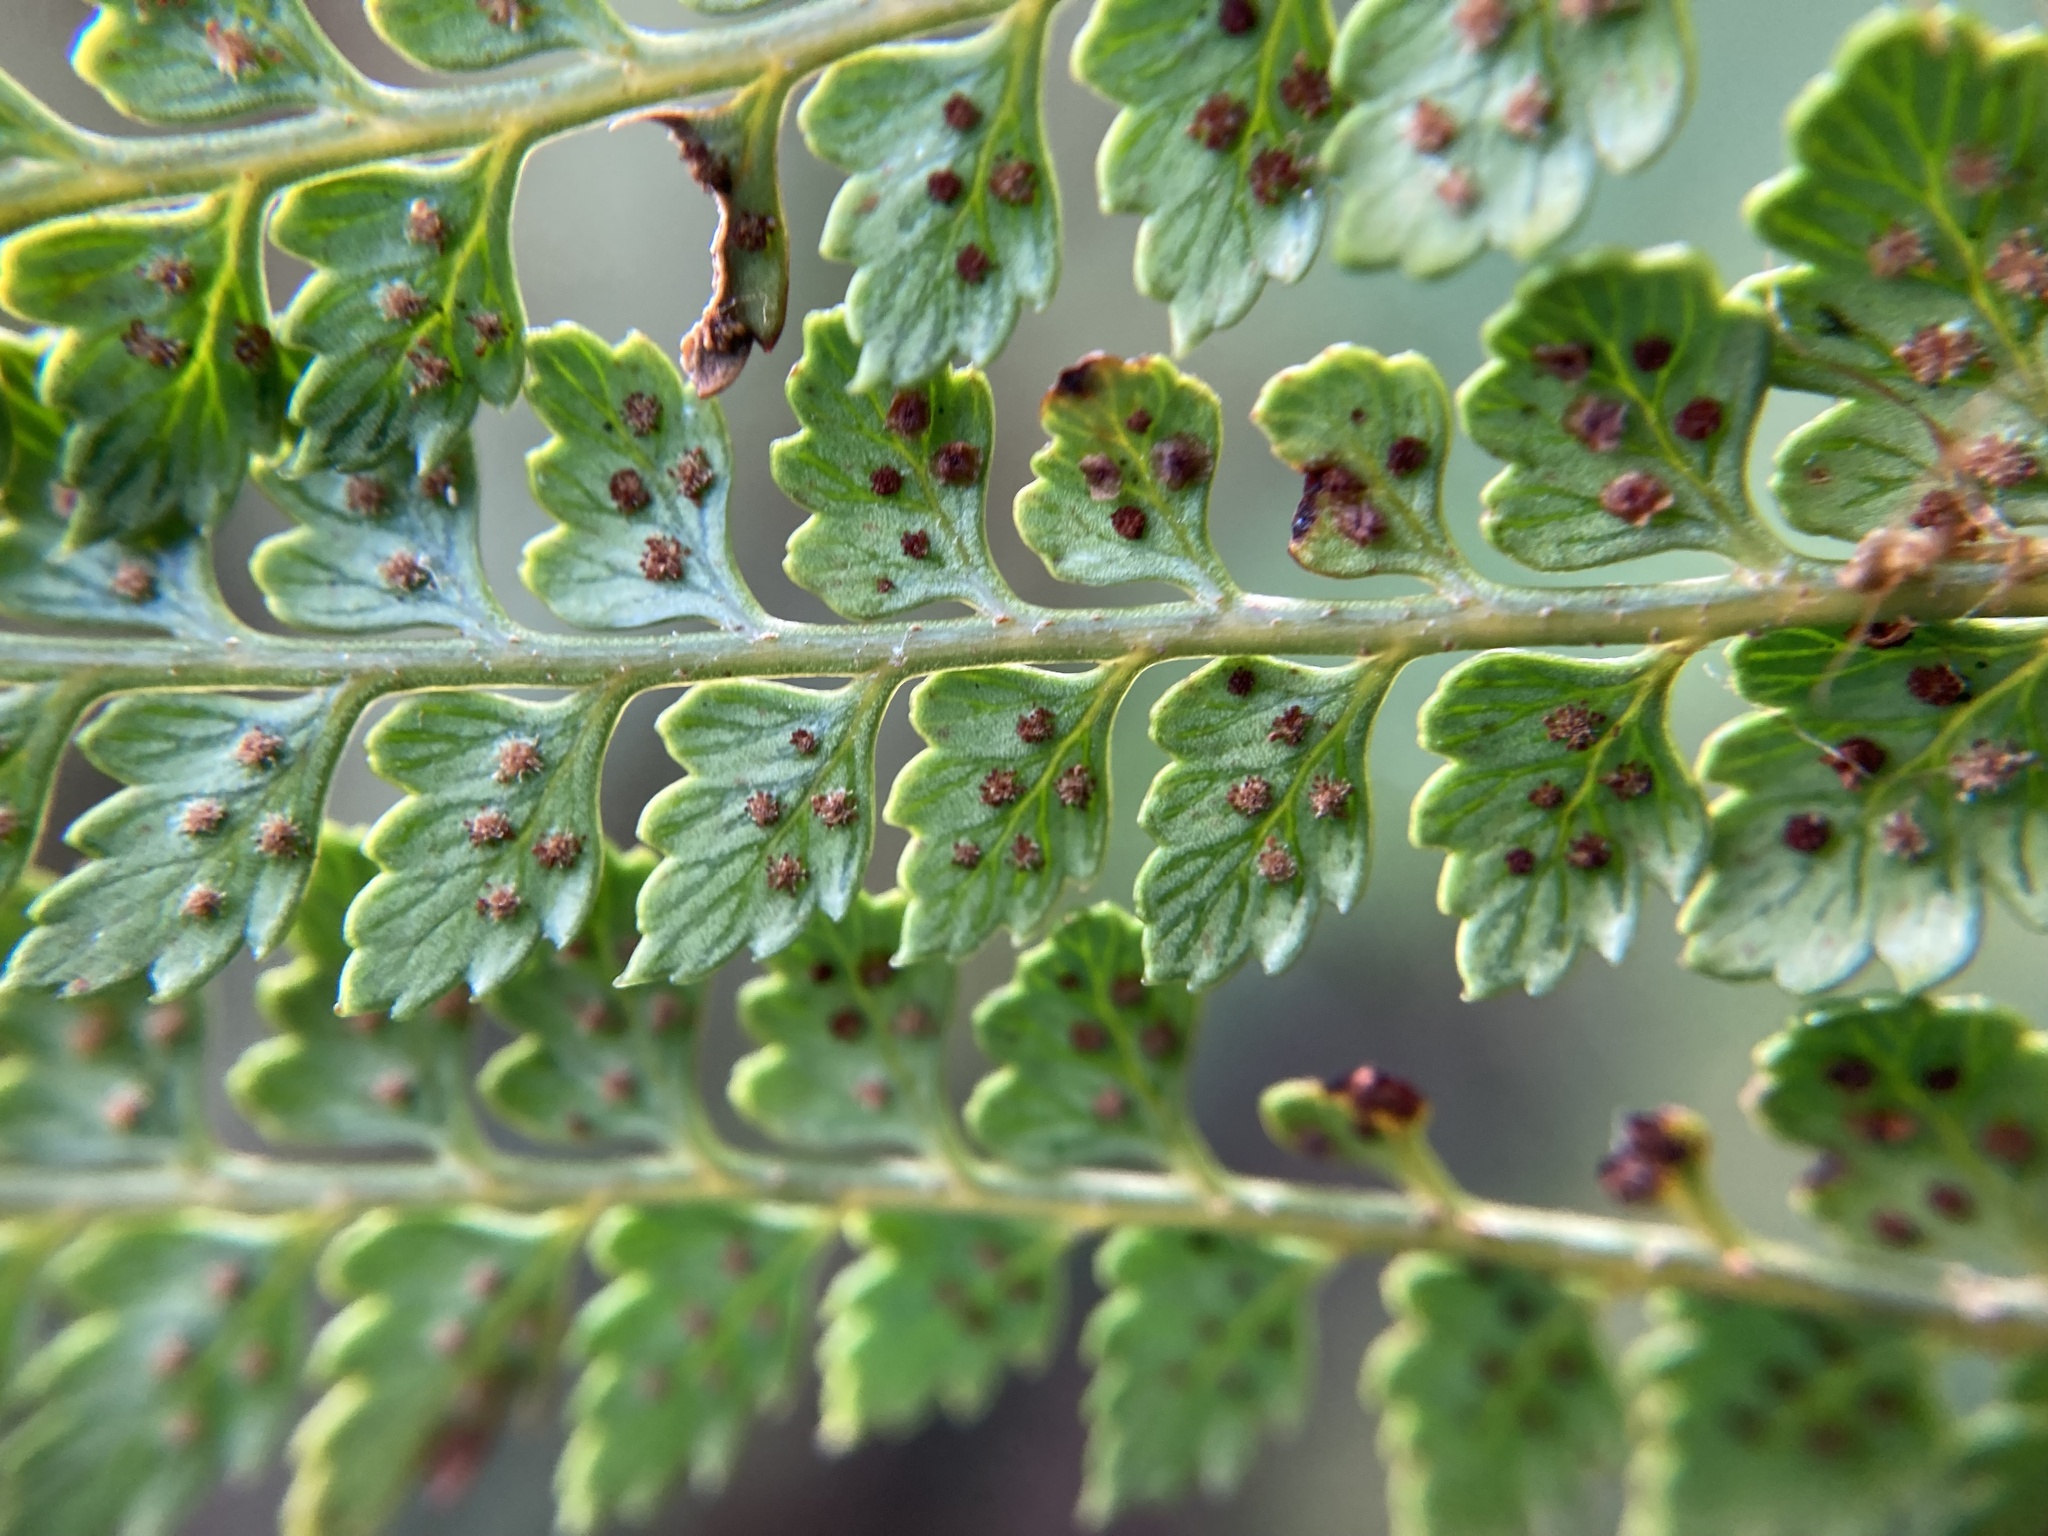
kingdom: Plantae
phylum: Tracheophyta
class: Polypodiopsida
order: Polypodiales
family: Dryopteridaceae
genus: Polystichum
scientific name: Polystichum vestitum
